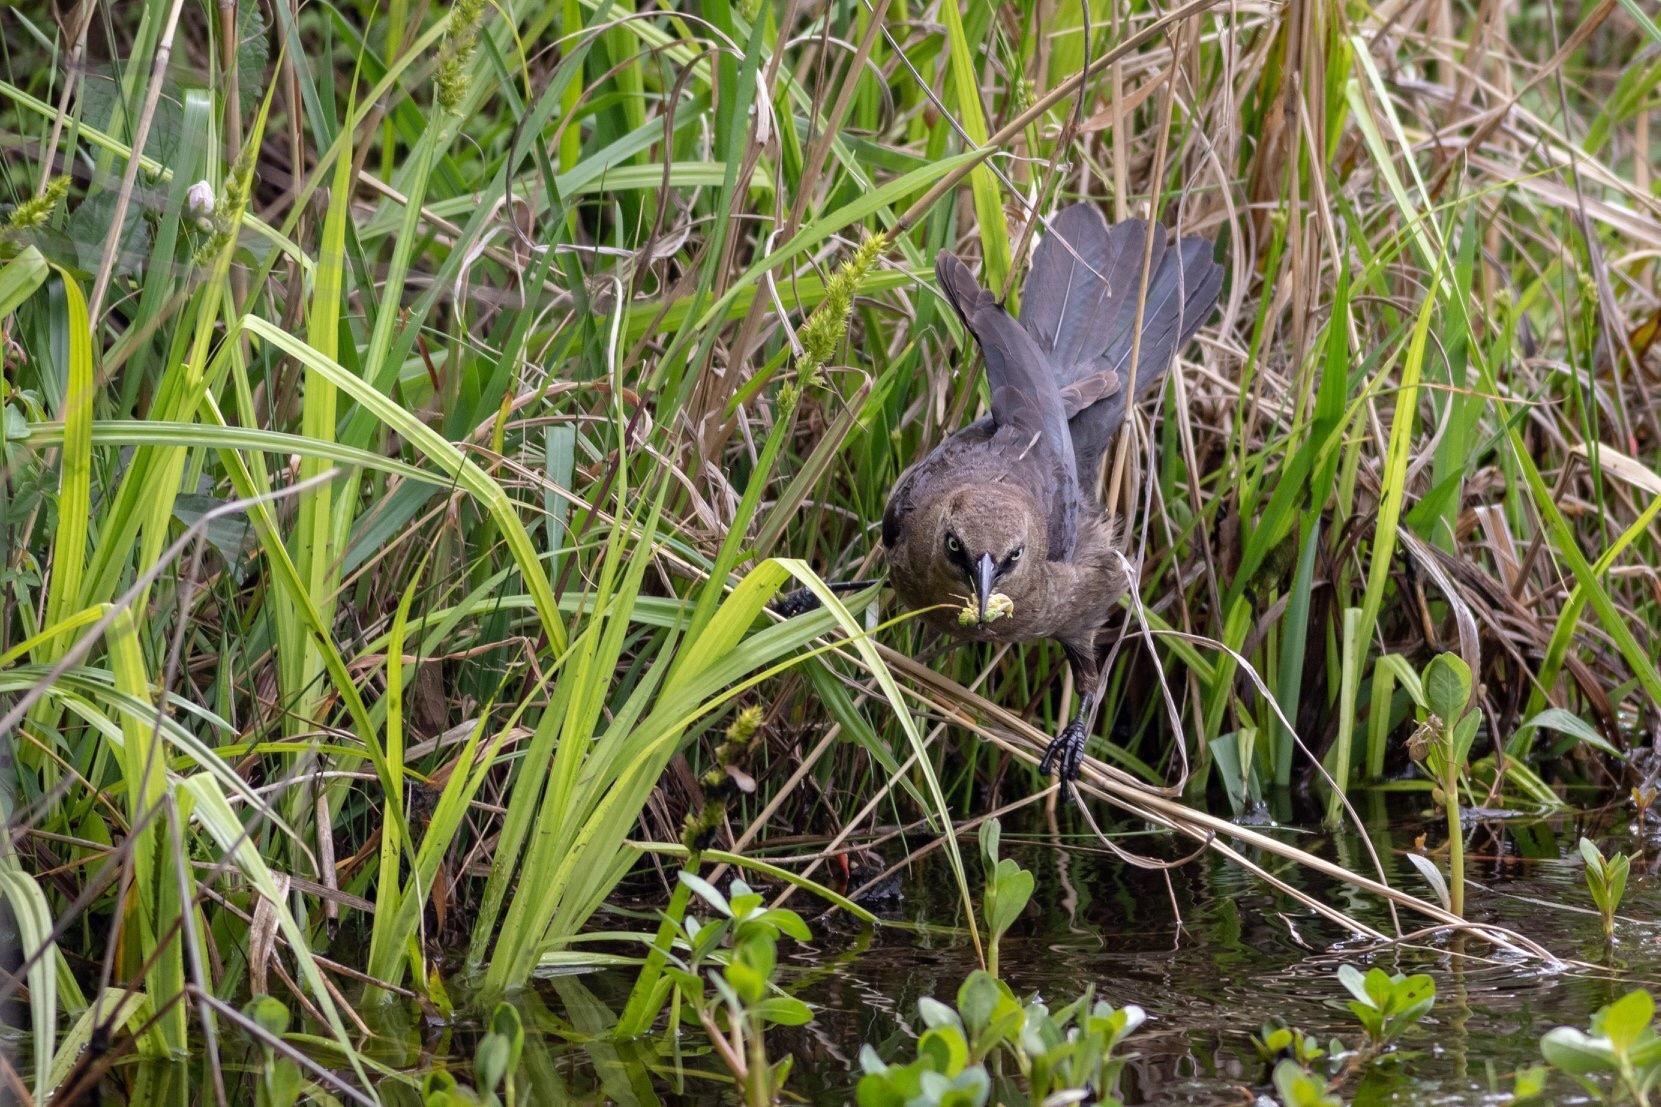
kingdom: Animalia
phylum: Chordata
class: Aves
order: Passeriformes
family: Icteridae
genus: Quiscalus
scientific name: Quiscalus major
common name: Boat-tailed grackle
